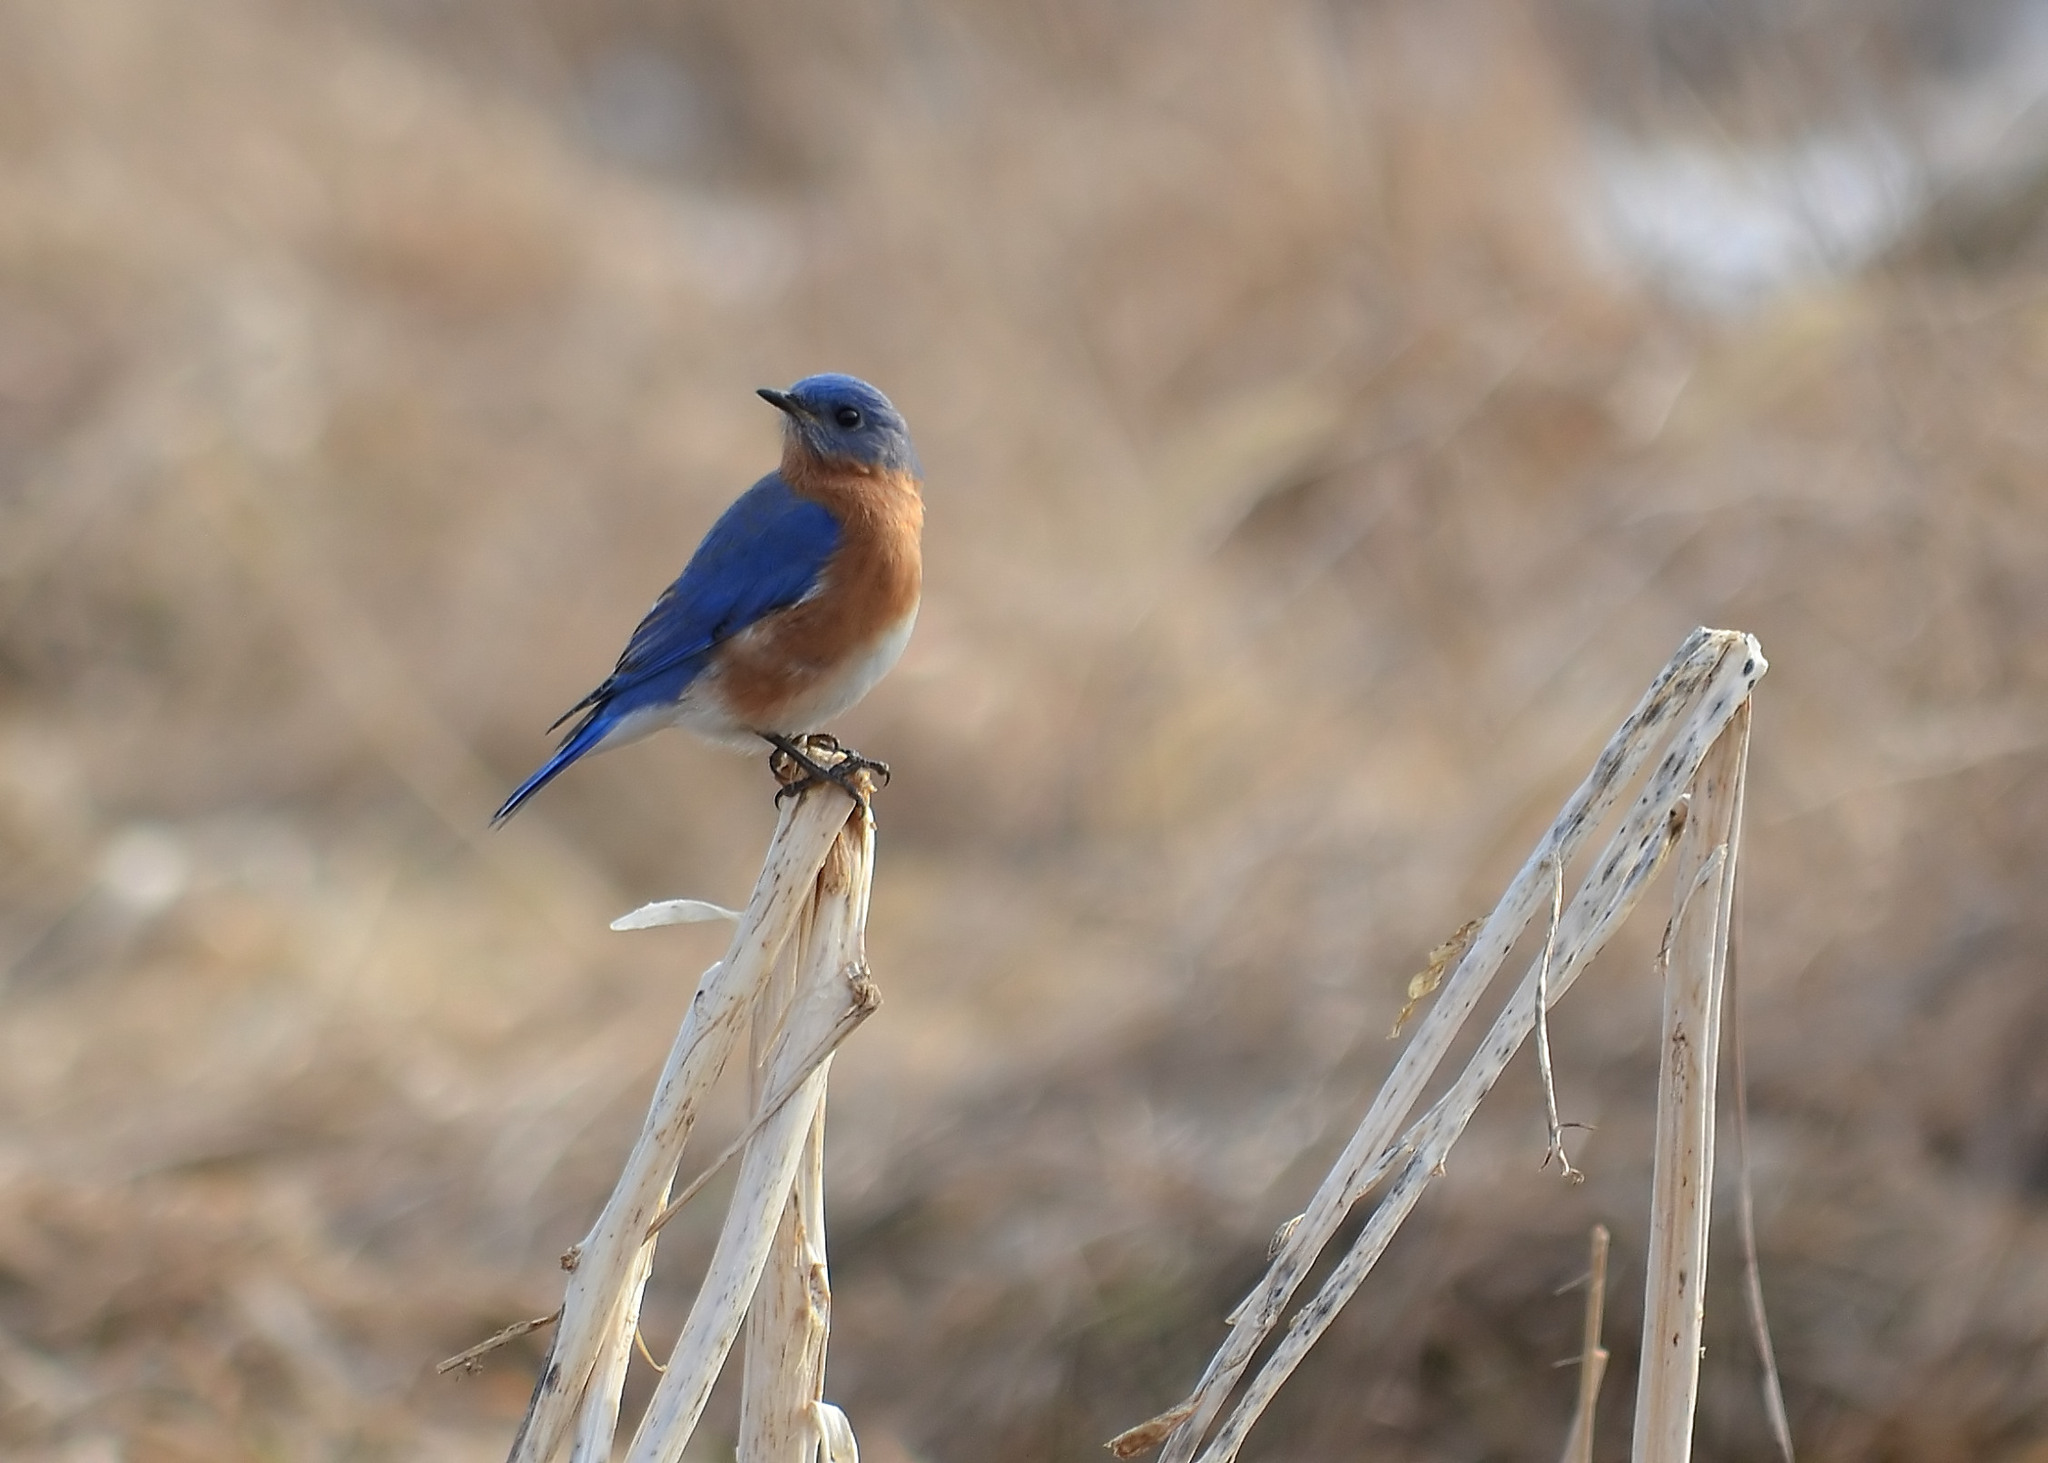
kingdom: Animalia
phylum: Chordata
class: Aves
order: Passeriformes
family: Turdidae
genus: Sialia
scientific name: Sialia sialis
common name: Eastern bluebird
